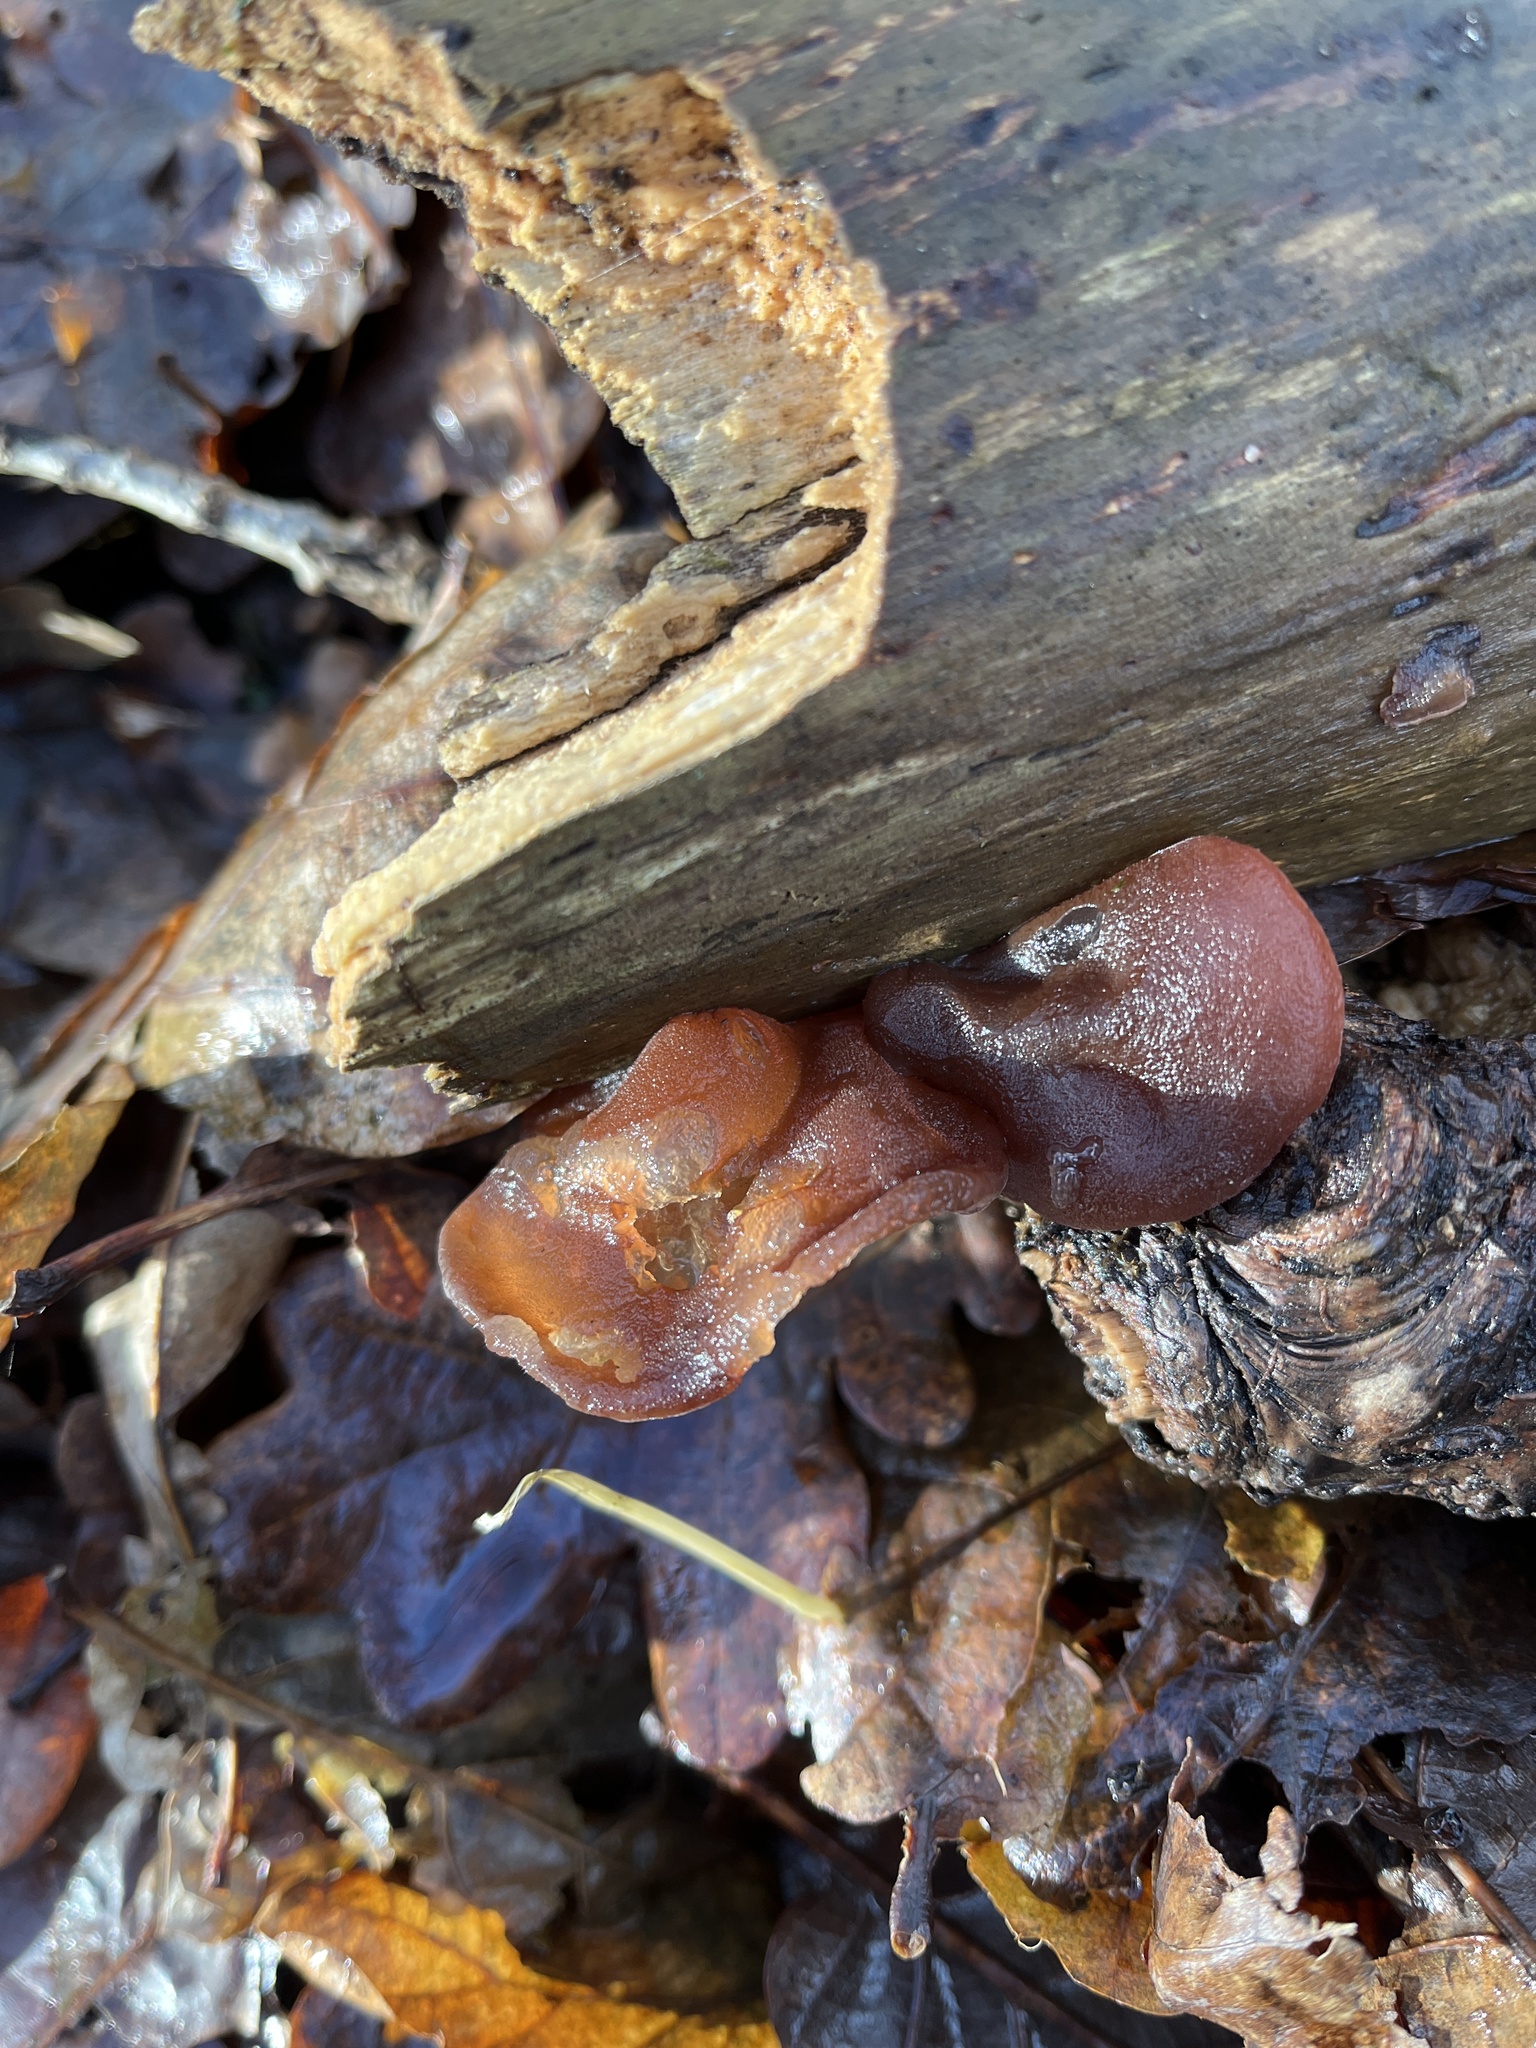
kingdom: Fungi
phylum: Basidiomycota
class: Agaricomycetes
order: Auriculariales
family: Auriculariaceae
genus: Auricularia
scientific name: Auricularia auricula-judae
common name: Jelly ear
